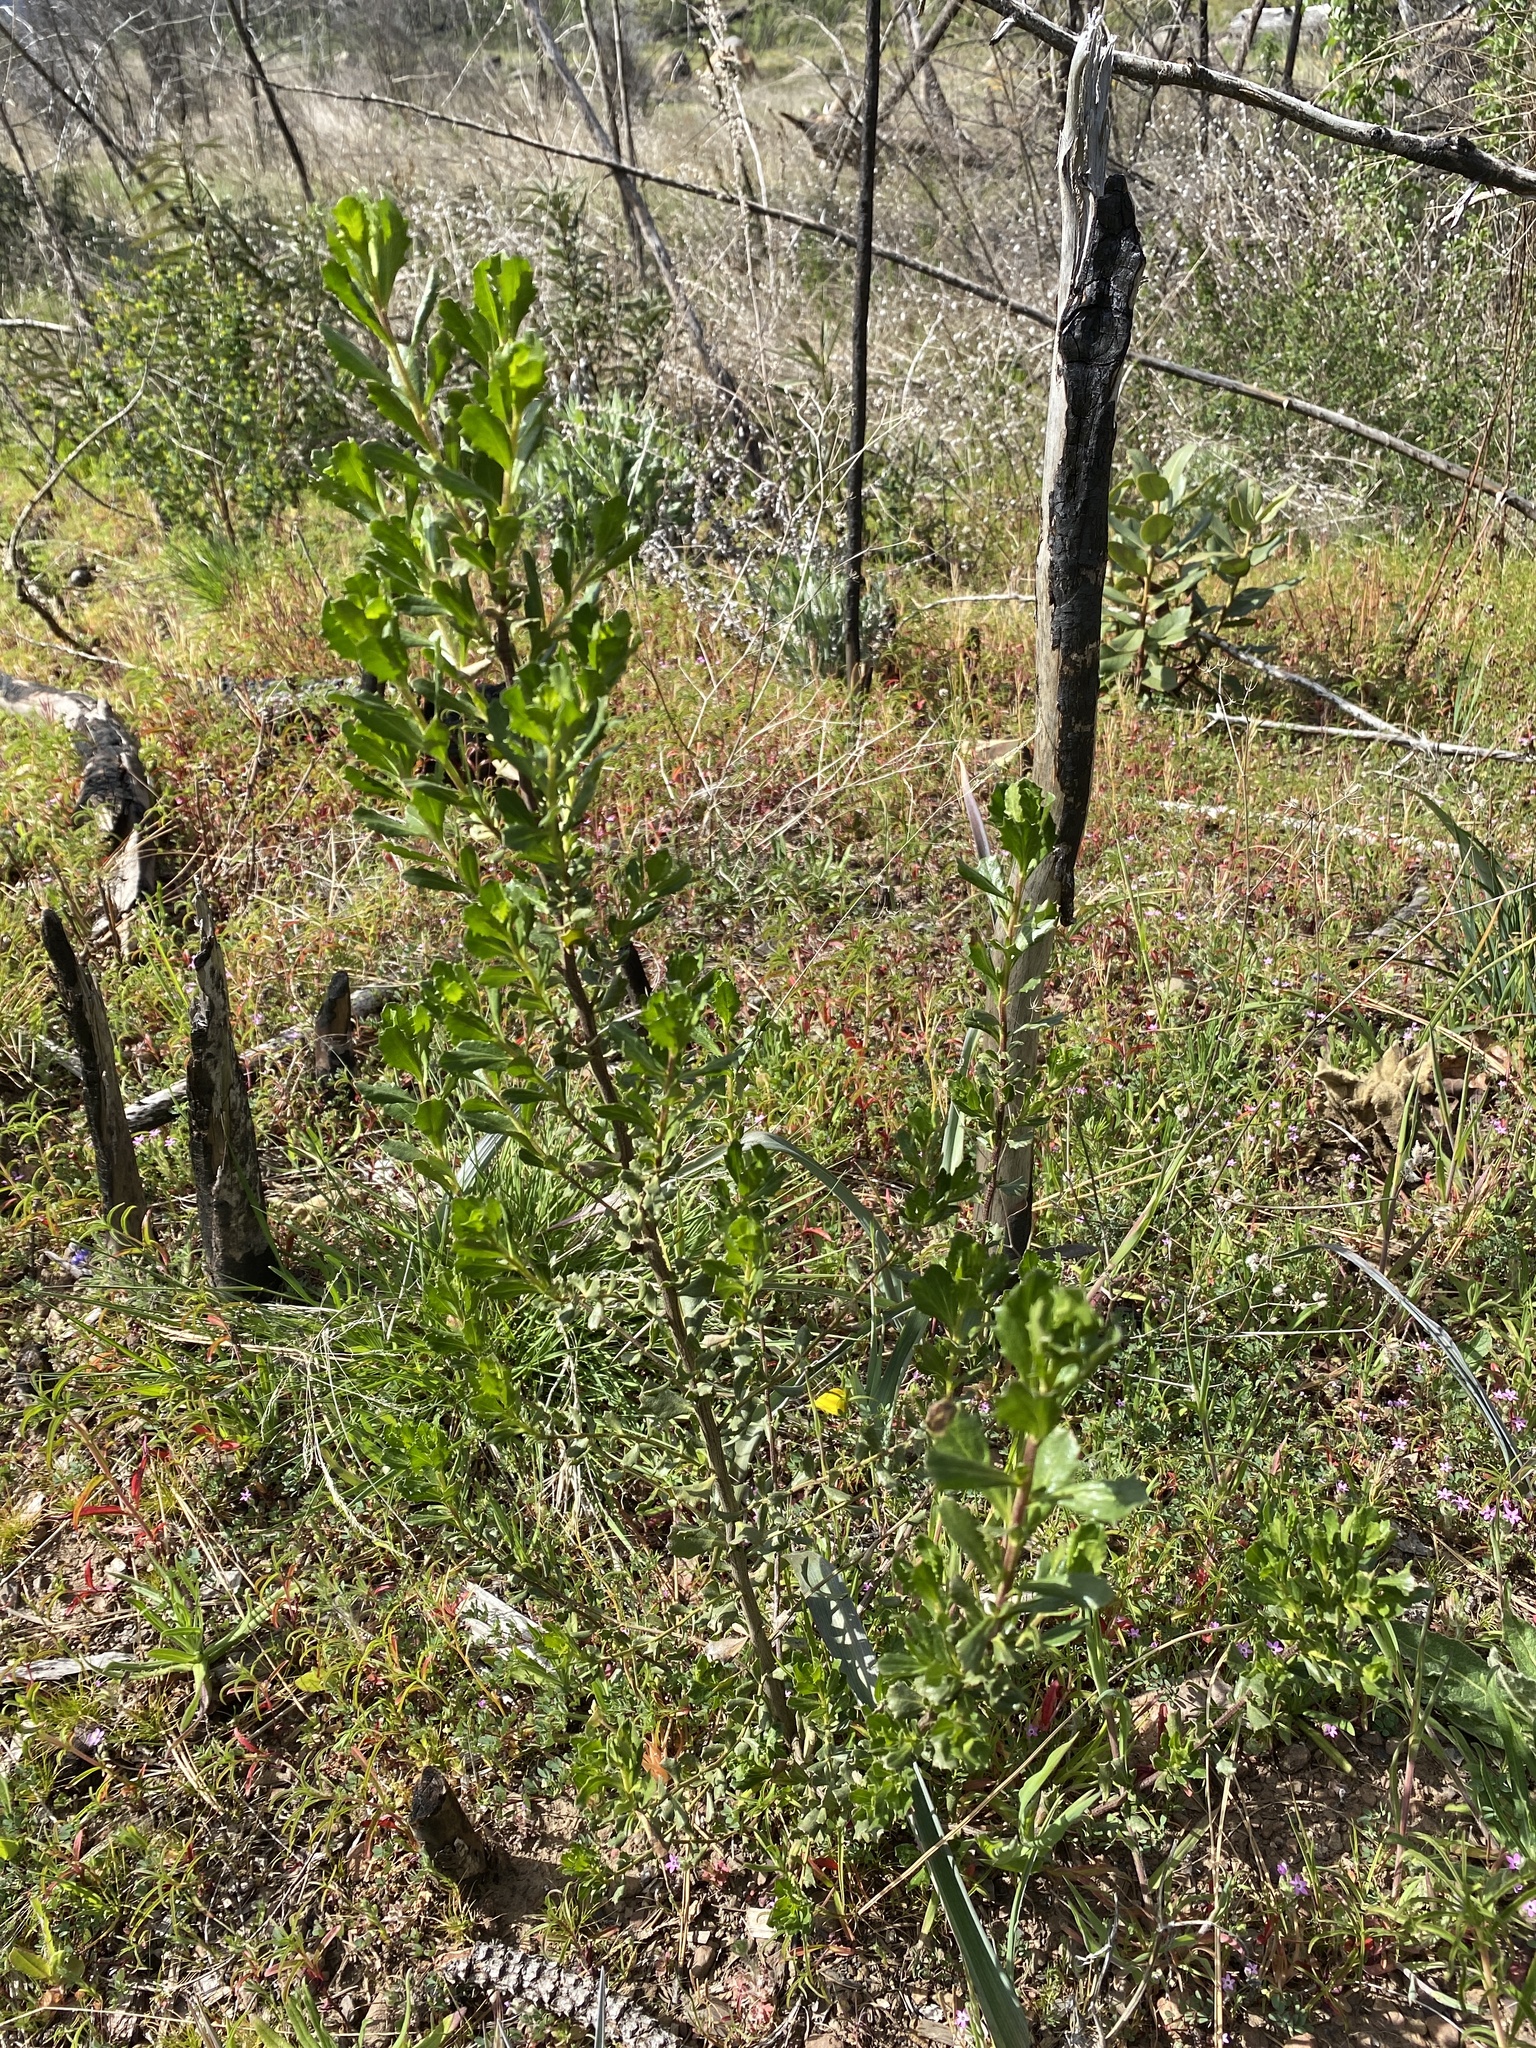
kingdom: Plantae
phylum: Tracheophyta
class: Magnoliopsida
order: Asterales
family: Asteraceae
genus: Baccharis
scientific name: Baccharis pilularis
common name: Coyotebrush
